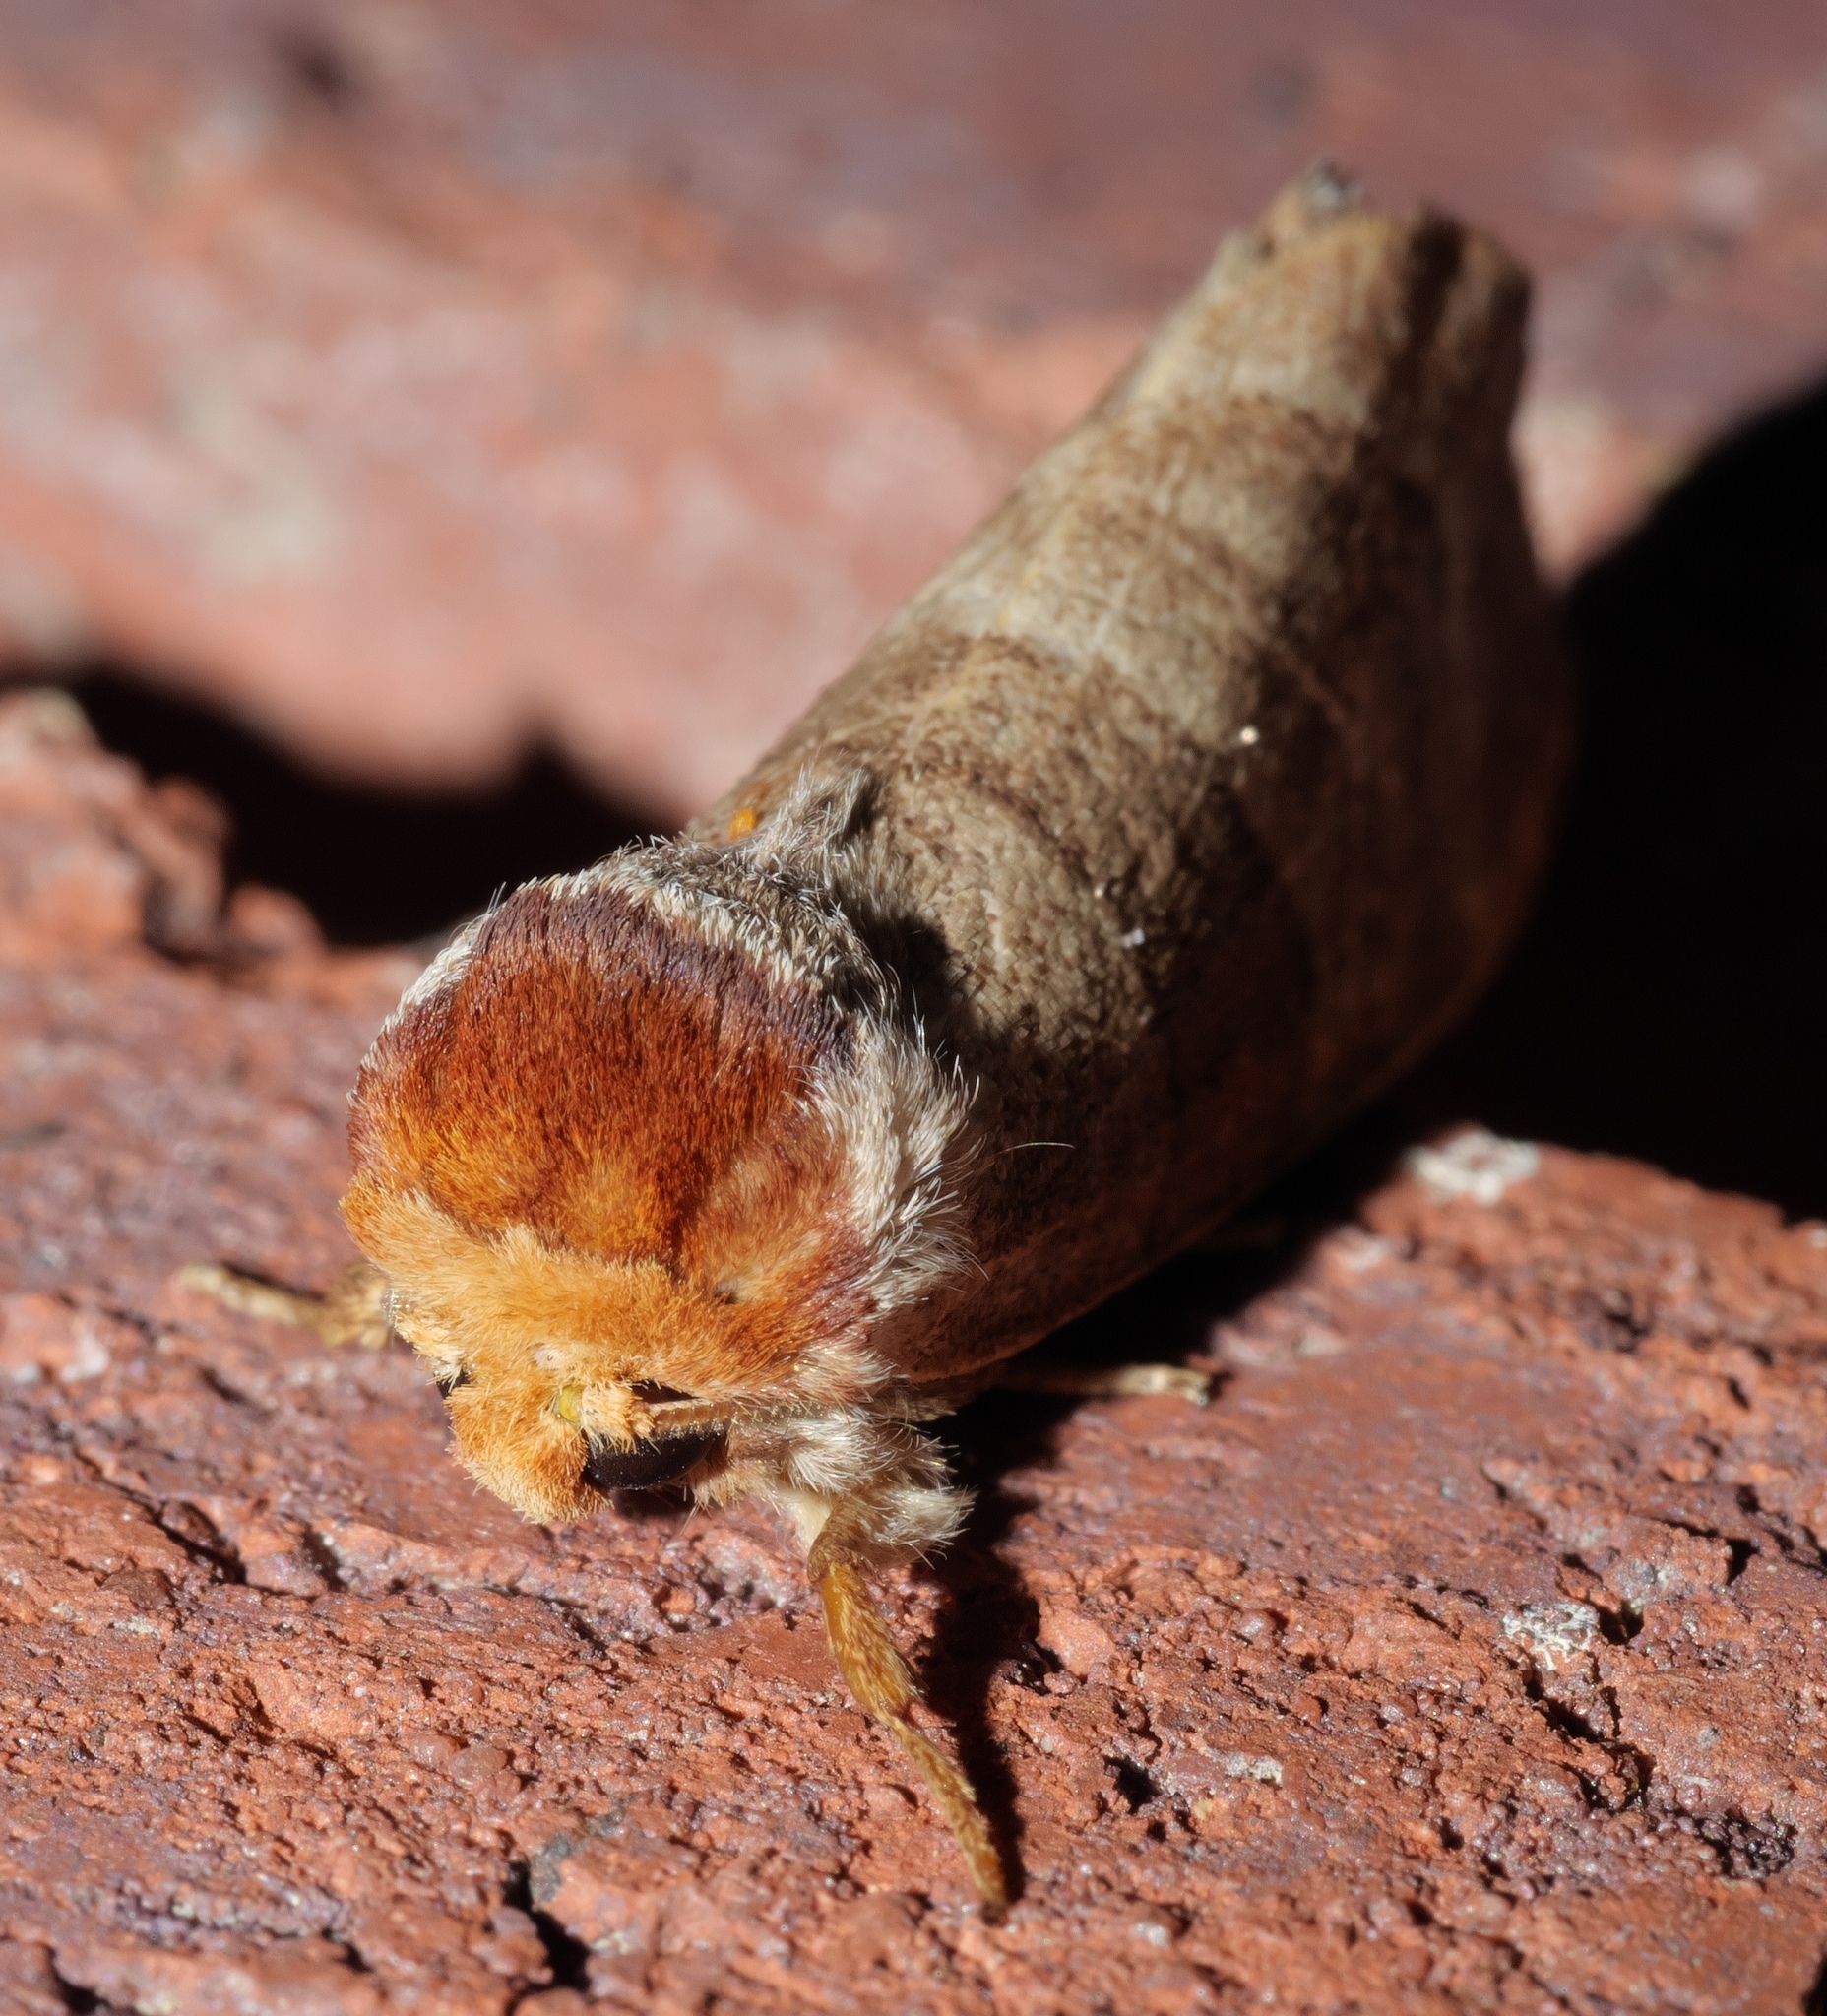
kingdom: Animalia
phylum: Arthropoda
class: Insecta
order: Lepidoptera
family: Notodontidae
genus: Datana
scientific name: Datana integerrima
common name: Walnut caterpillar
